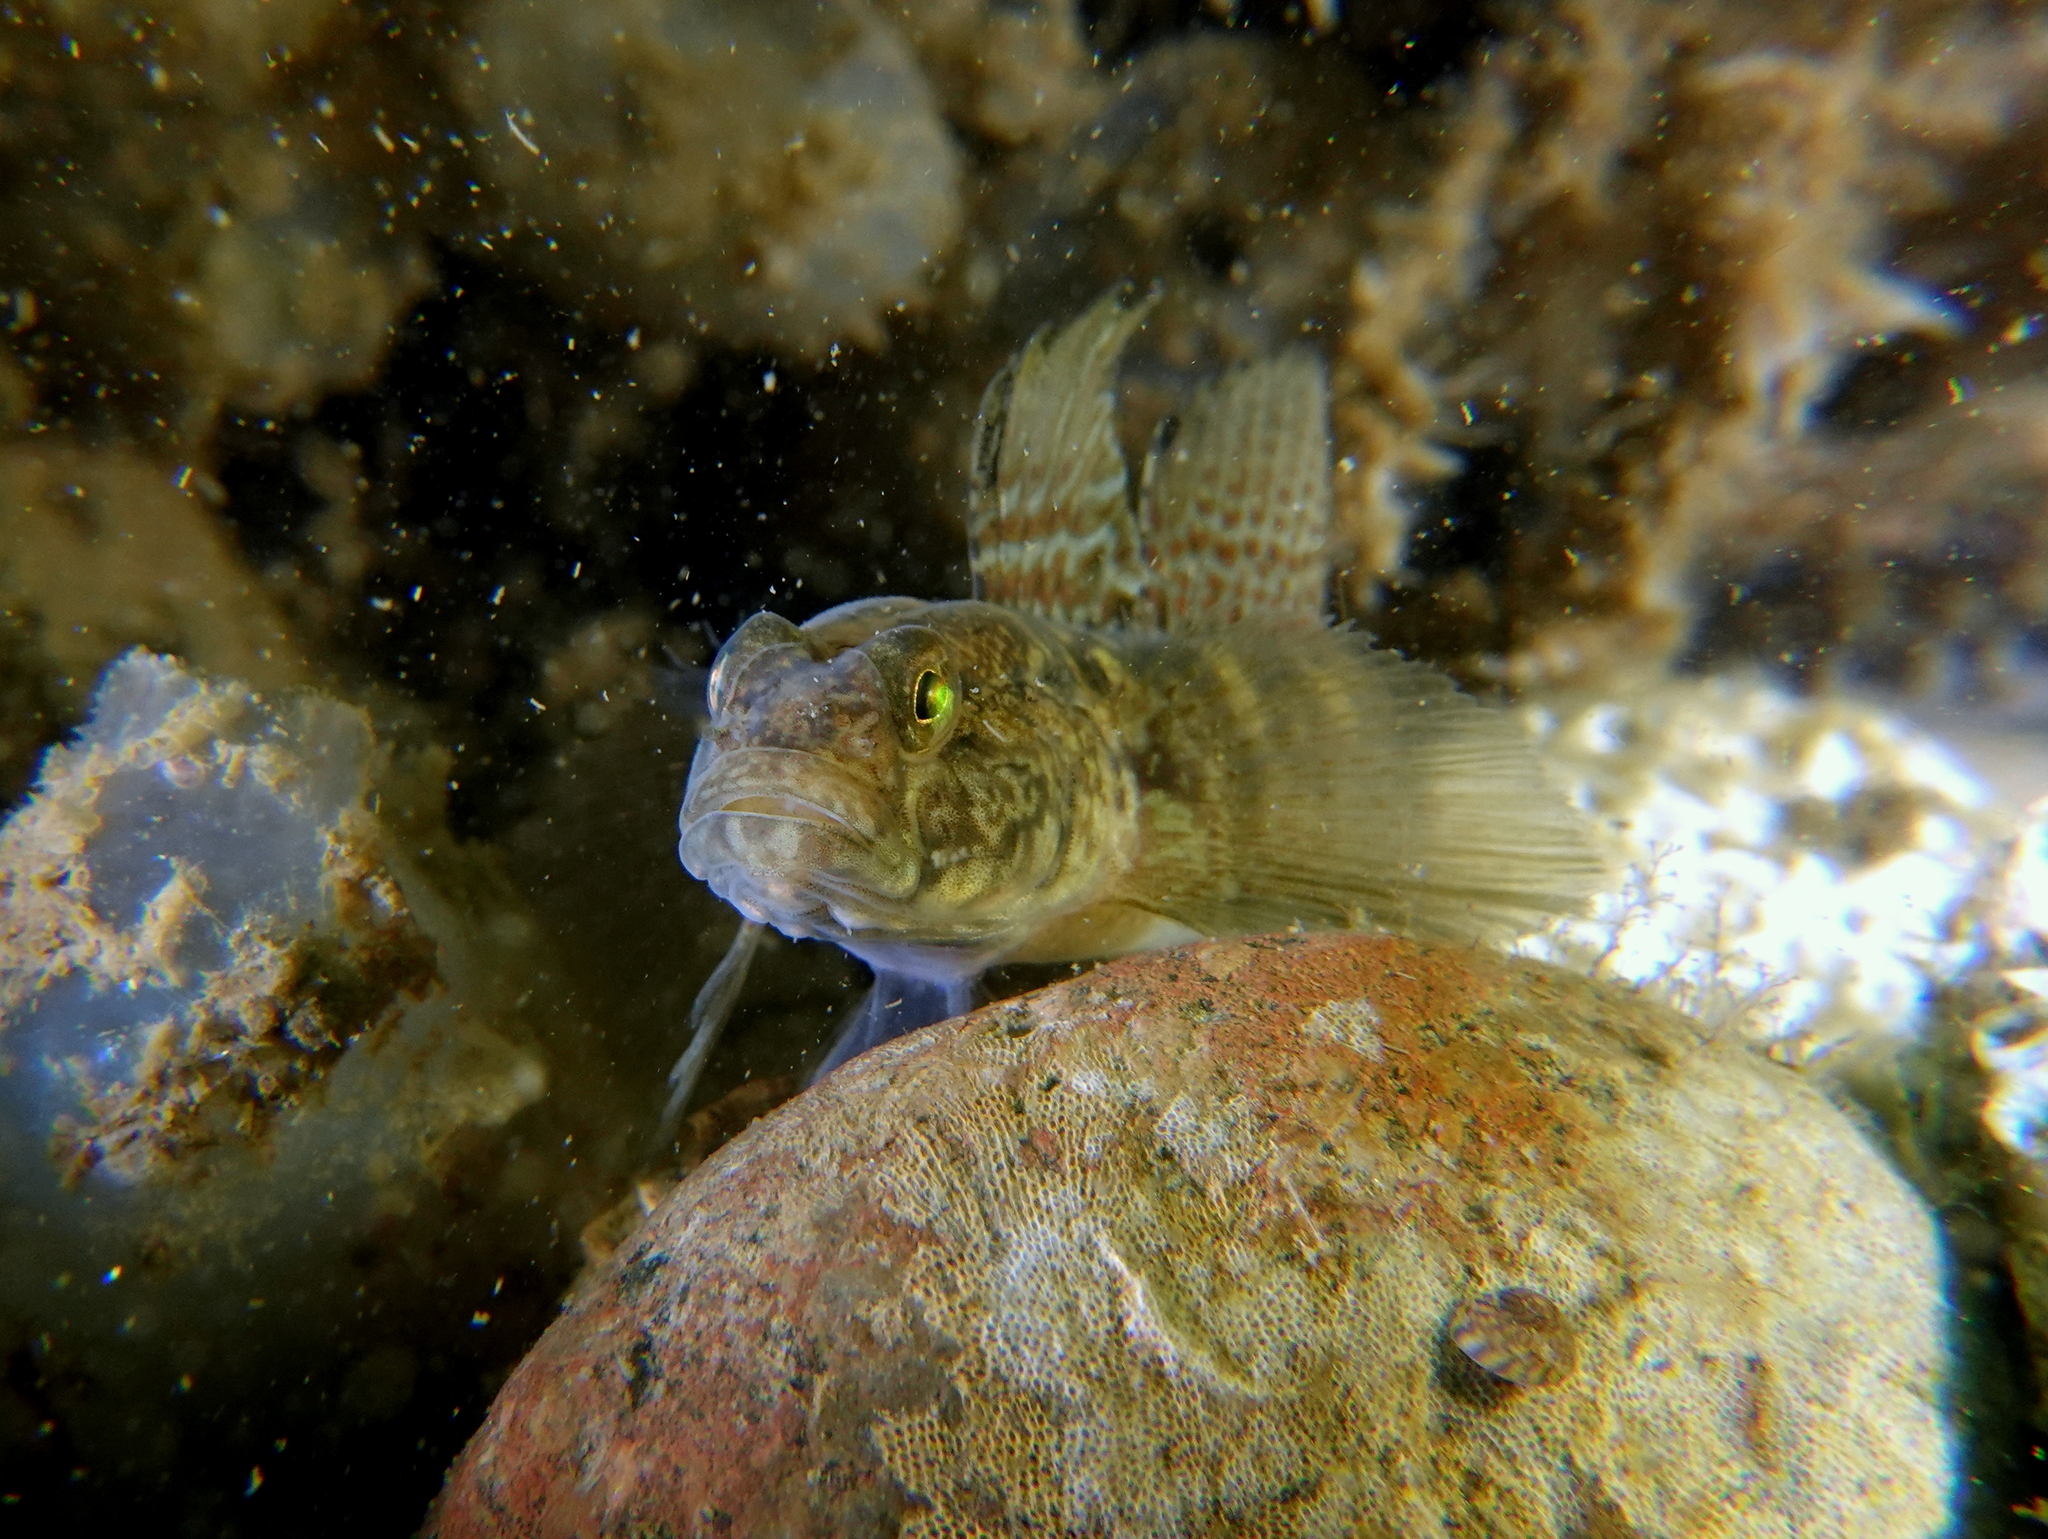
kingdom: Animalia
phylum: Chordata
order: Perciformes
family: Gobiidae
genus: Gobius
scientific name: Gobius niger
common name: Black goby
